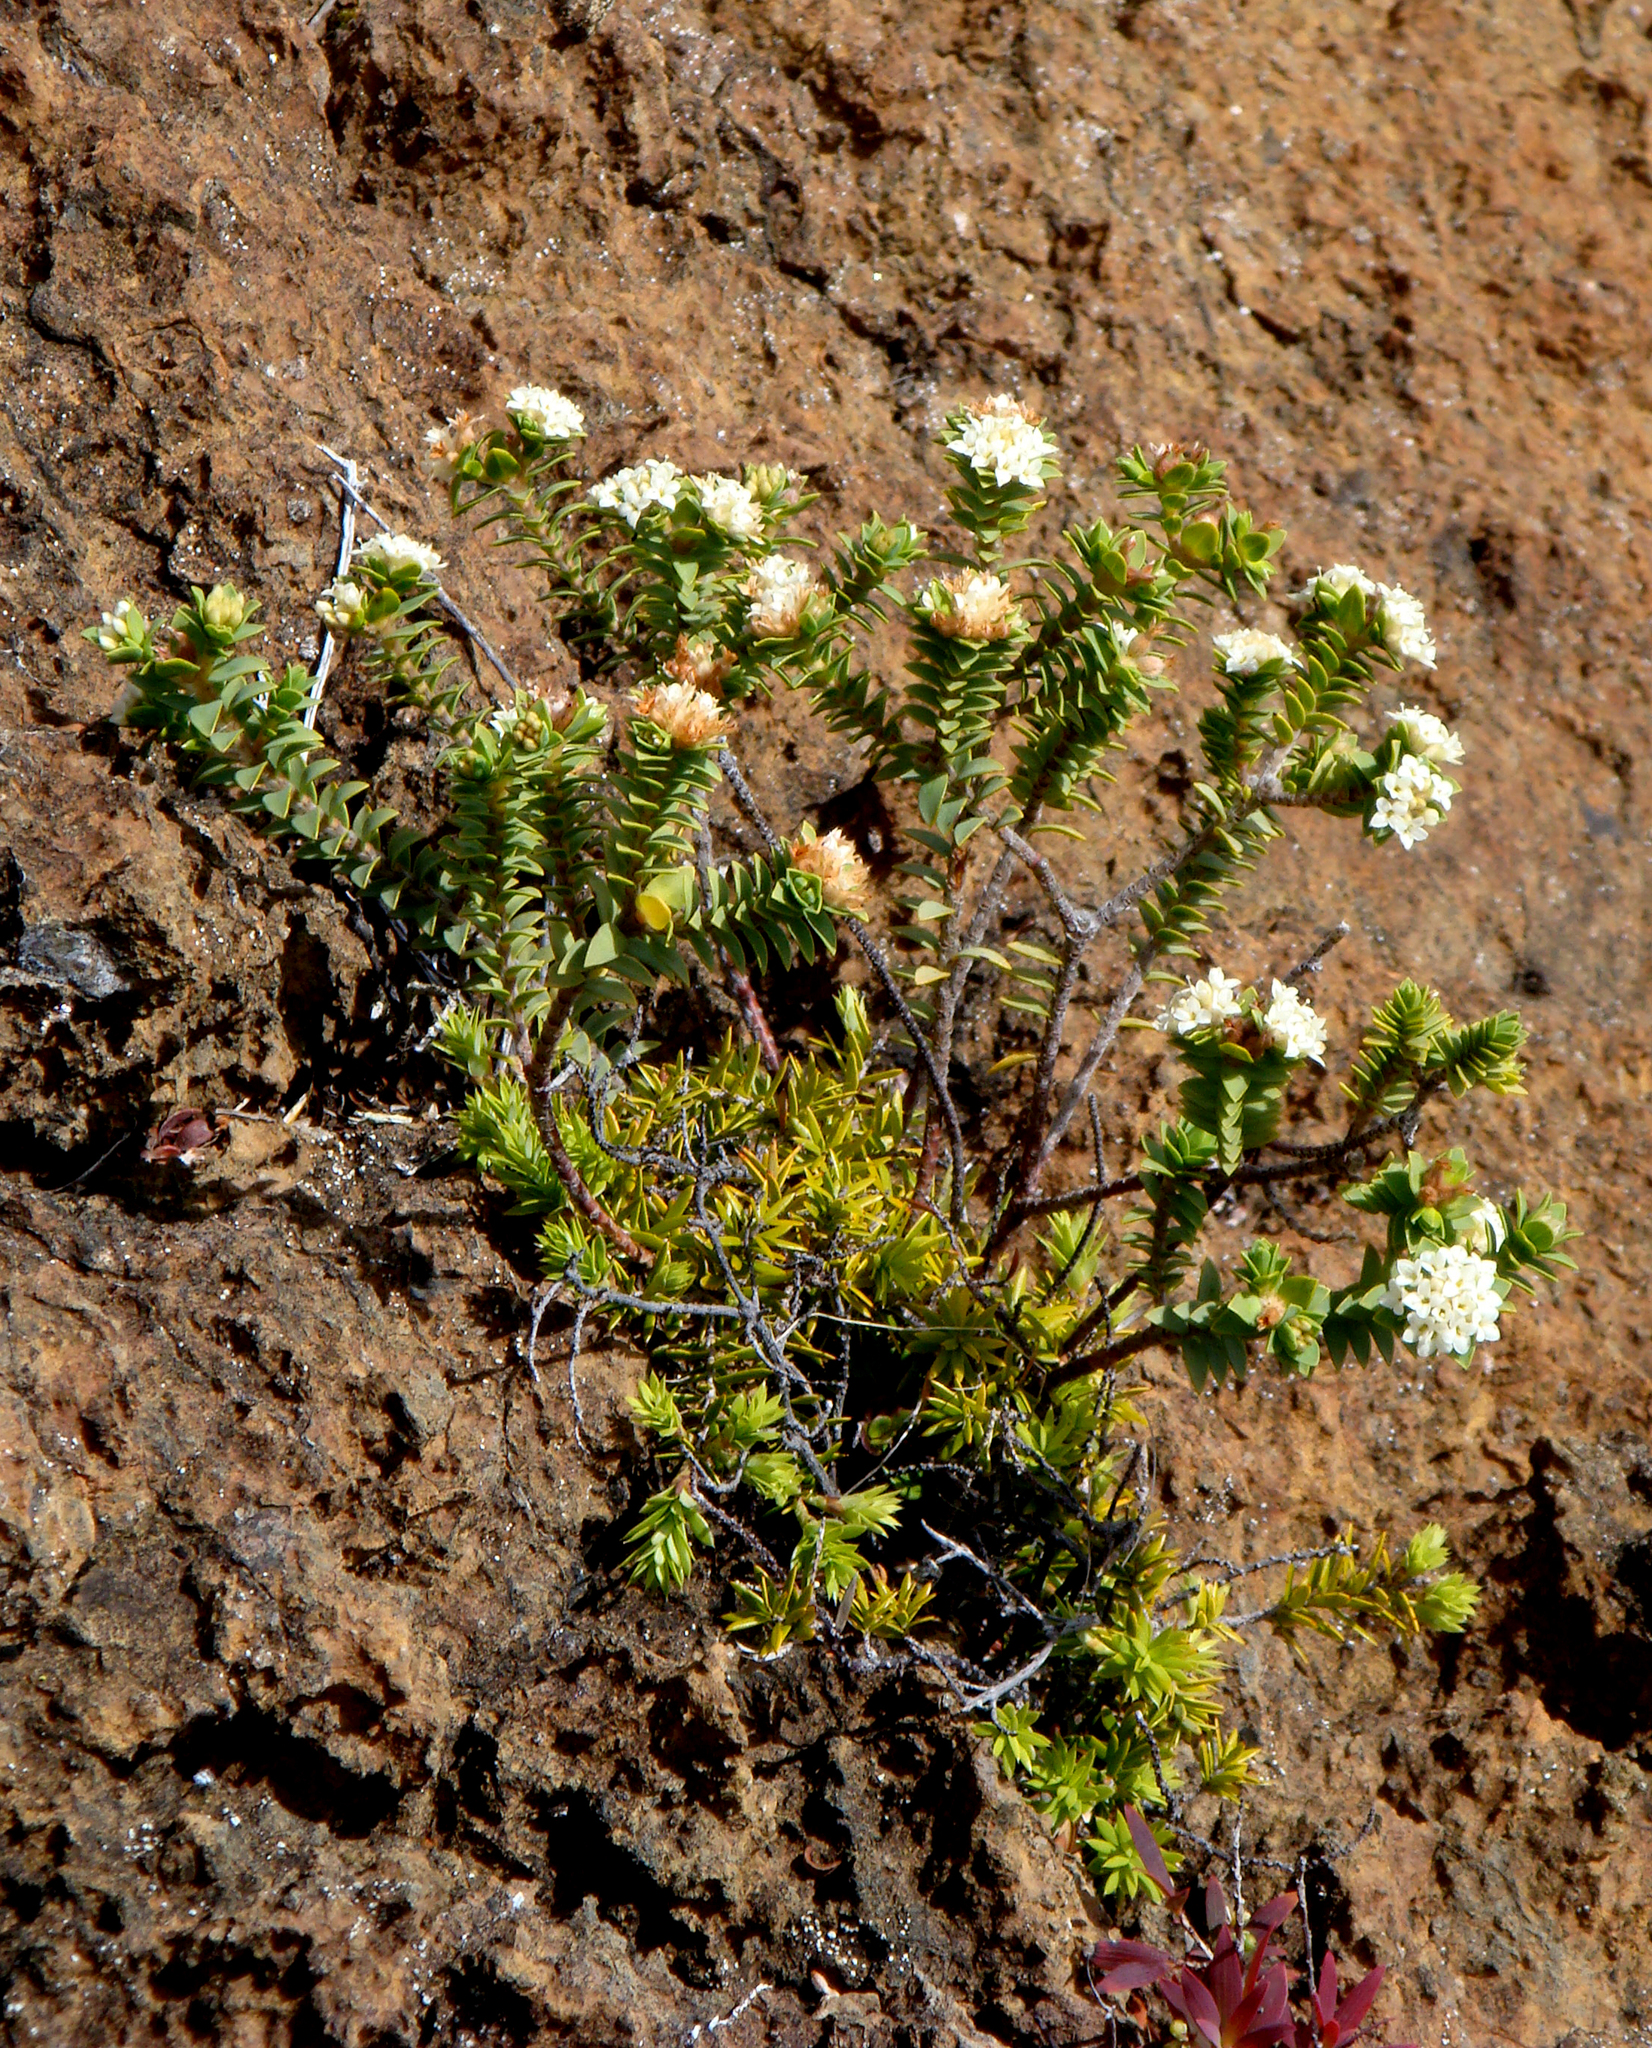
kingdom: Plantae
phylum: Tracheophyta
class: Magnoliopsida
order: Malvales
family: Thymelaeaceae
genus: Pimelea
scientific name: Pimelea sporadica
